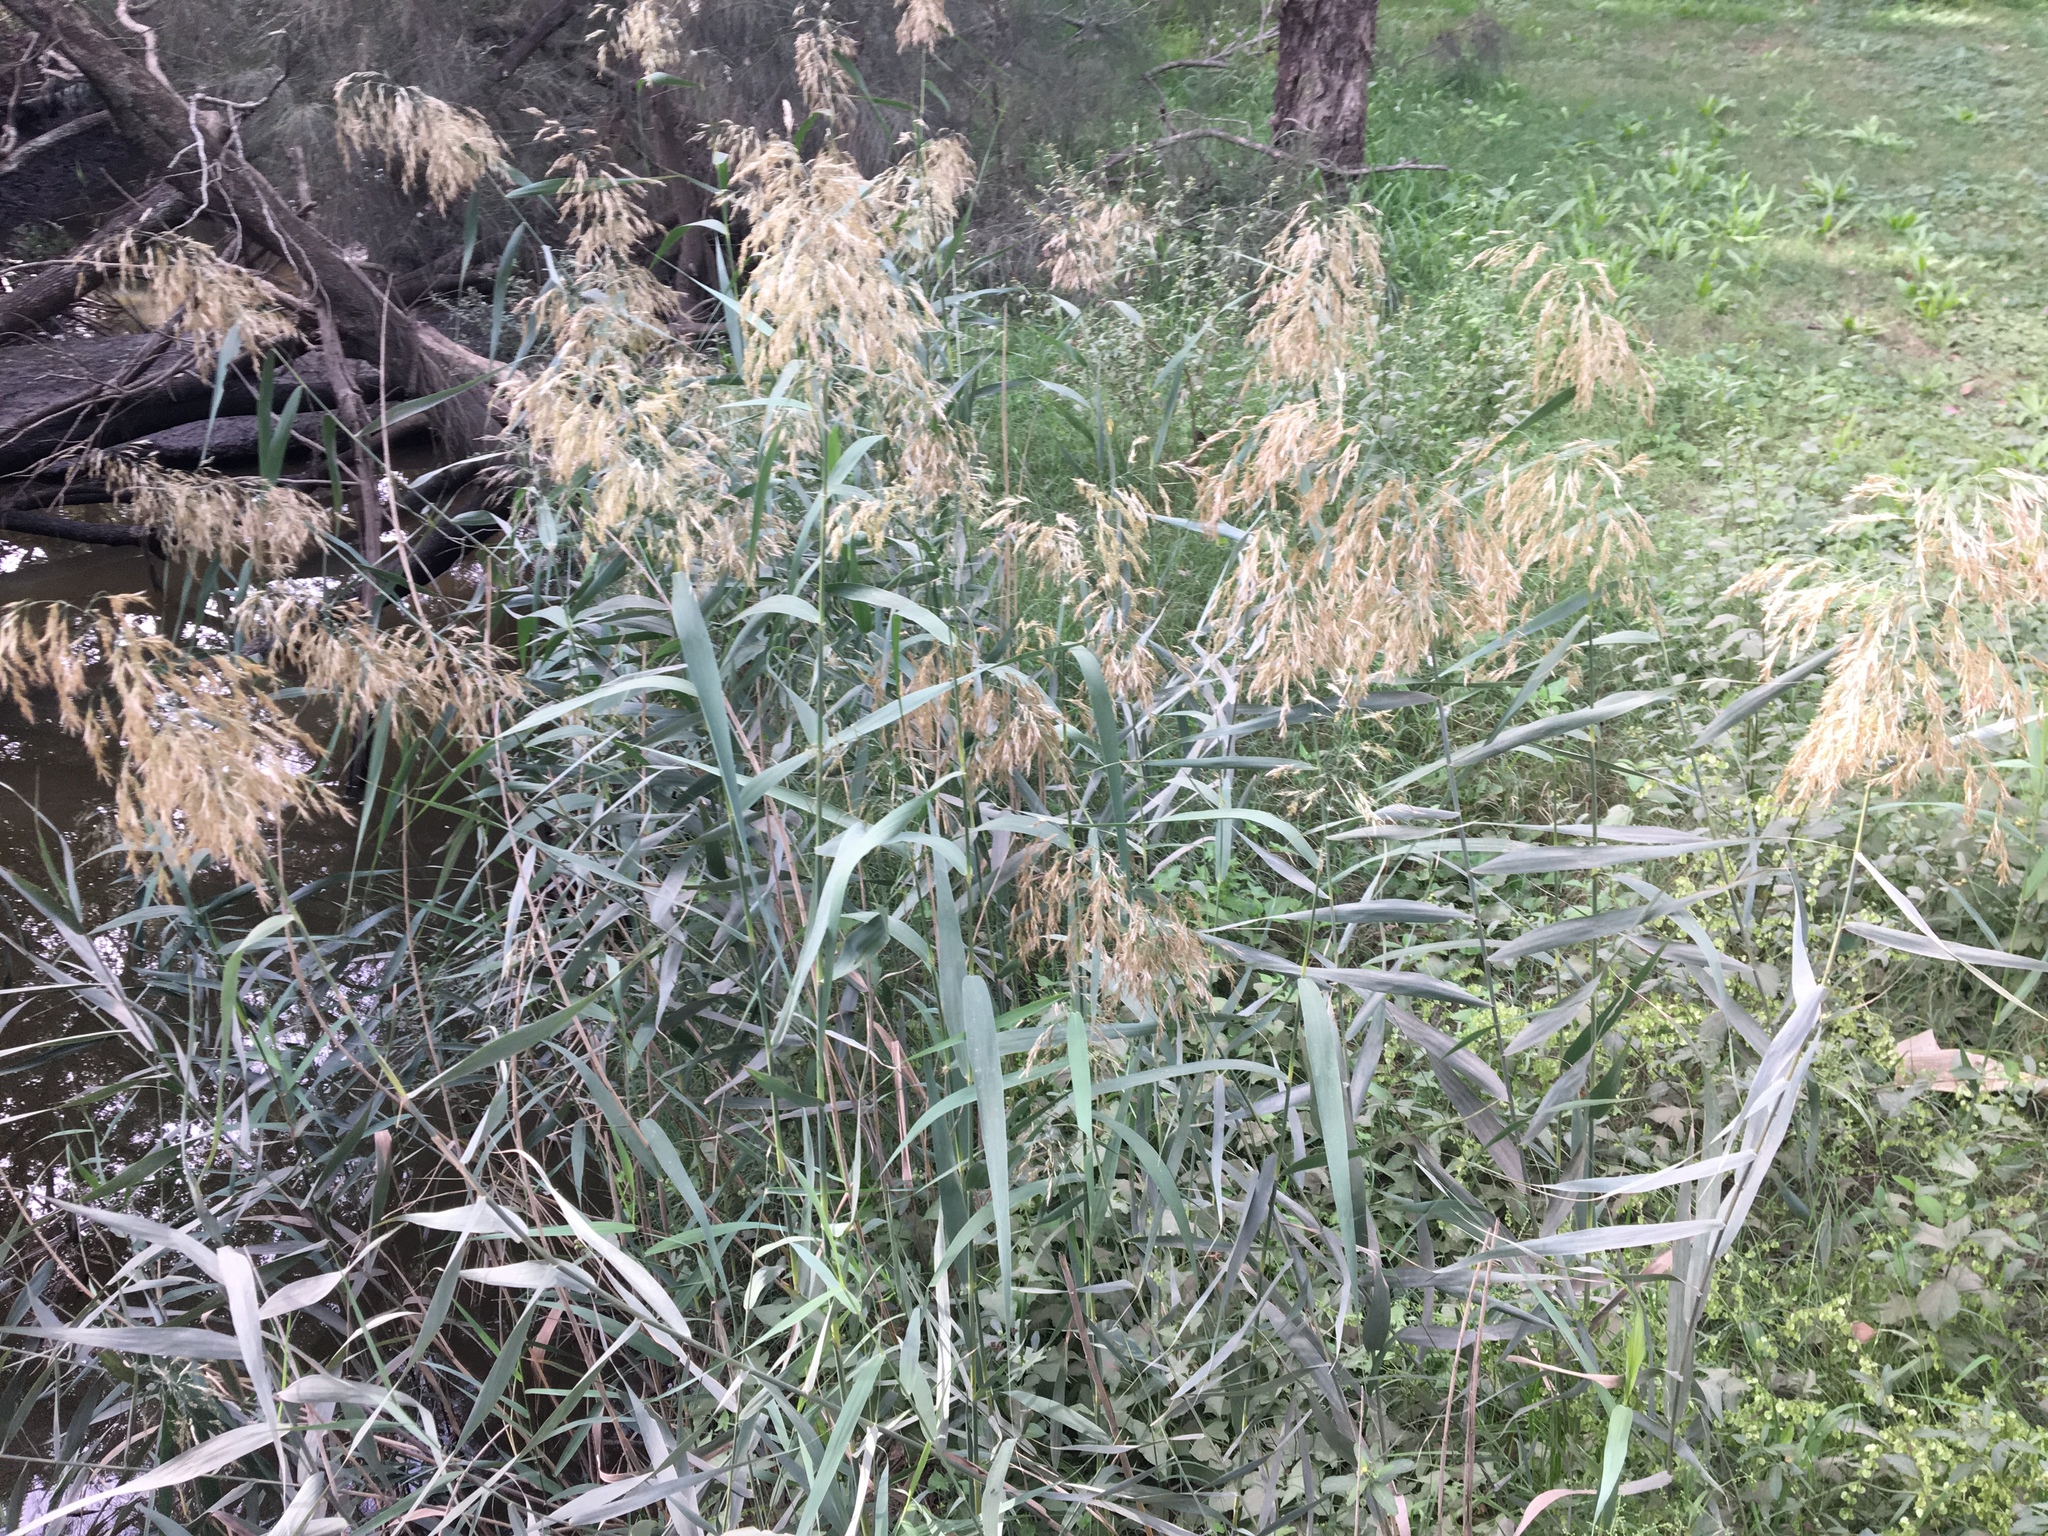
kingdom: Plantae
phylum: Tracheophyta
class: Liliopsida
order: Poales
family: Poaceae
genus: Phragmites
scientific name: Phragmites australis
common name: Common reed
